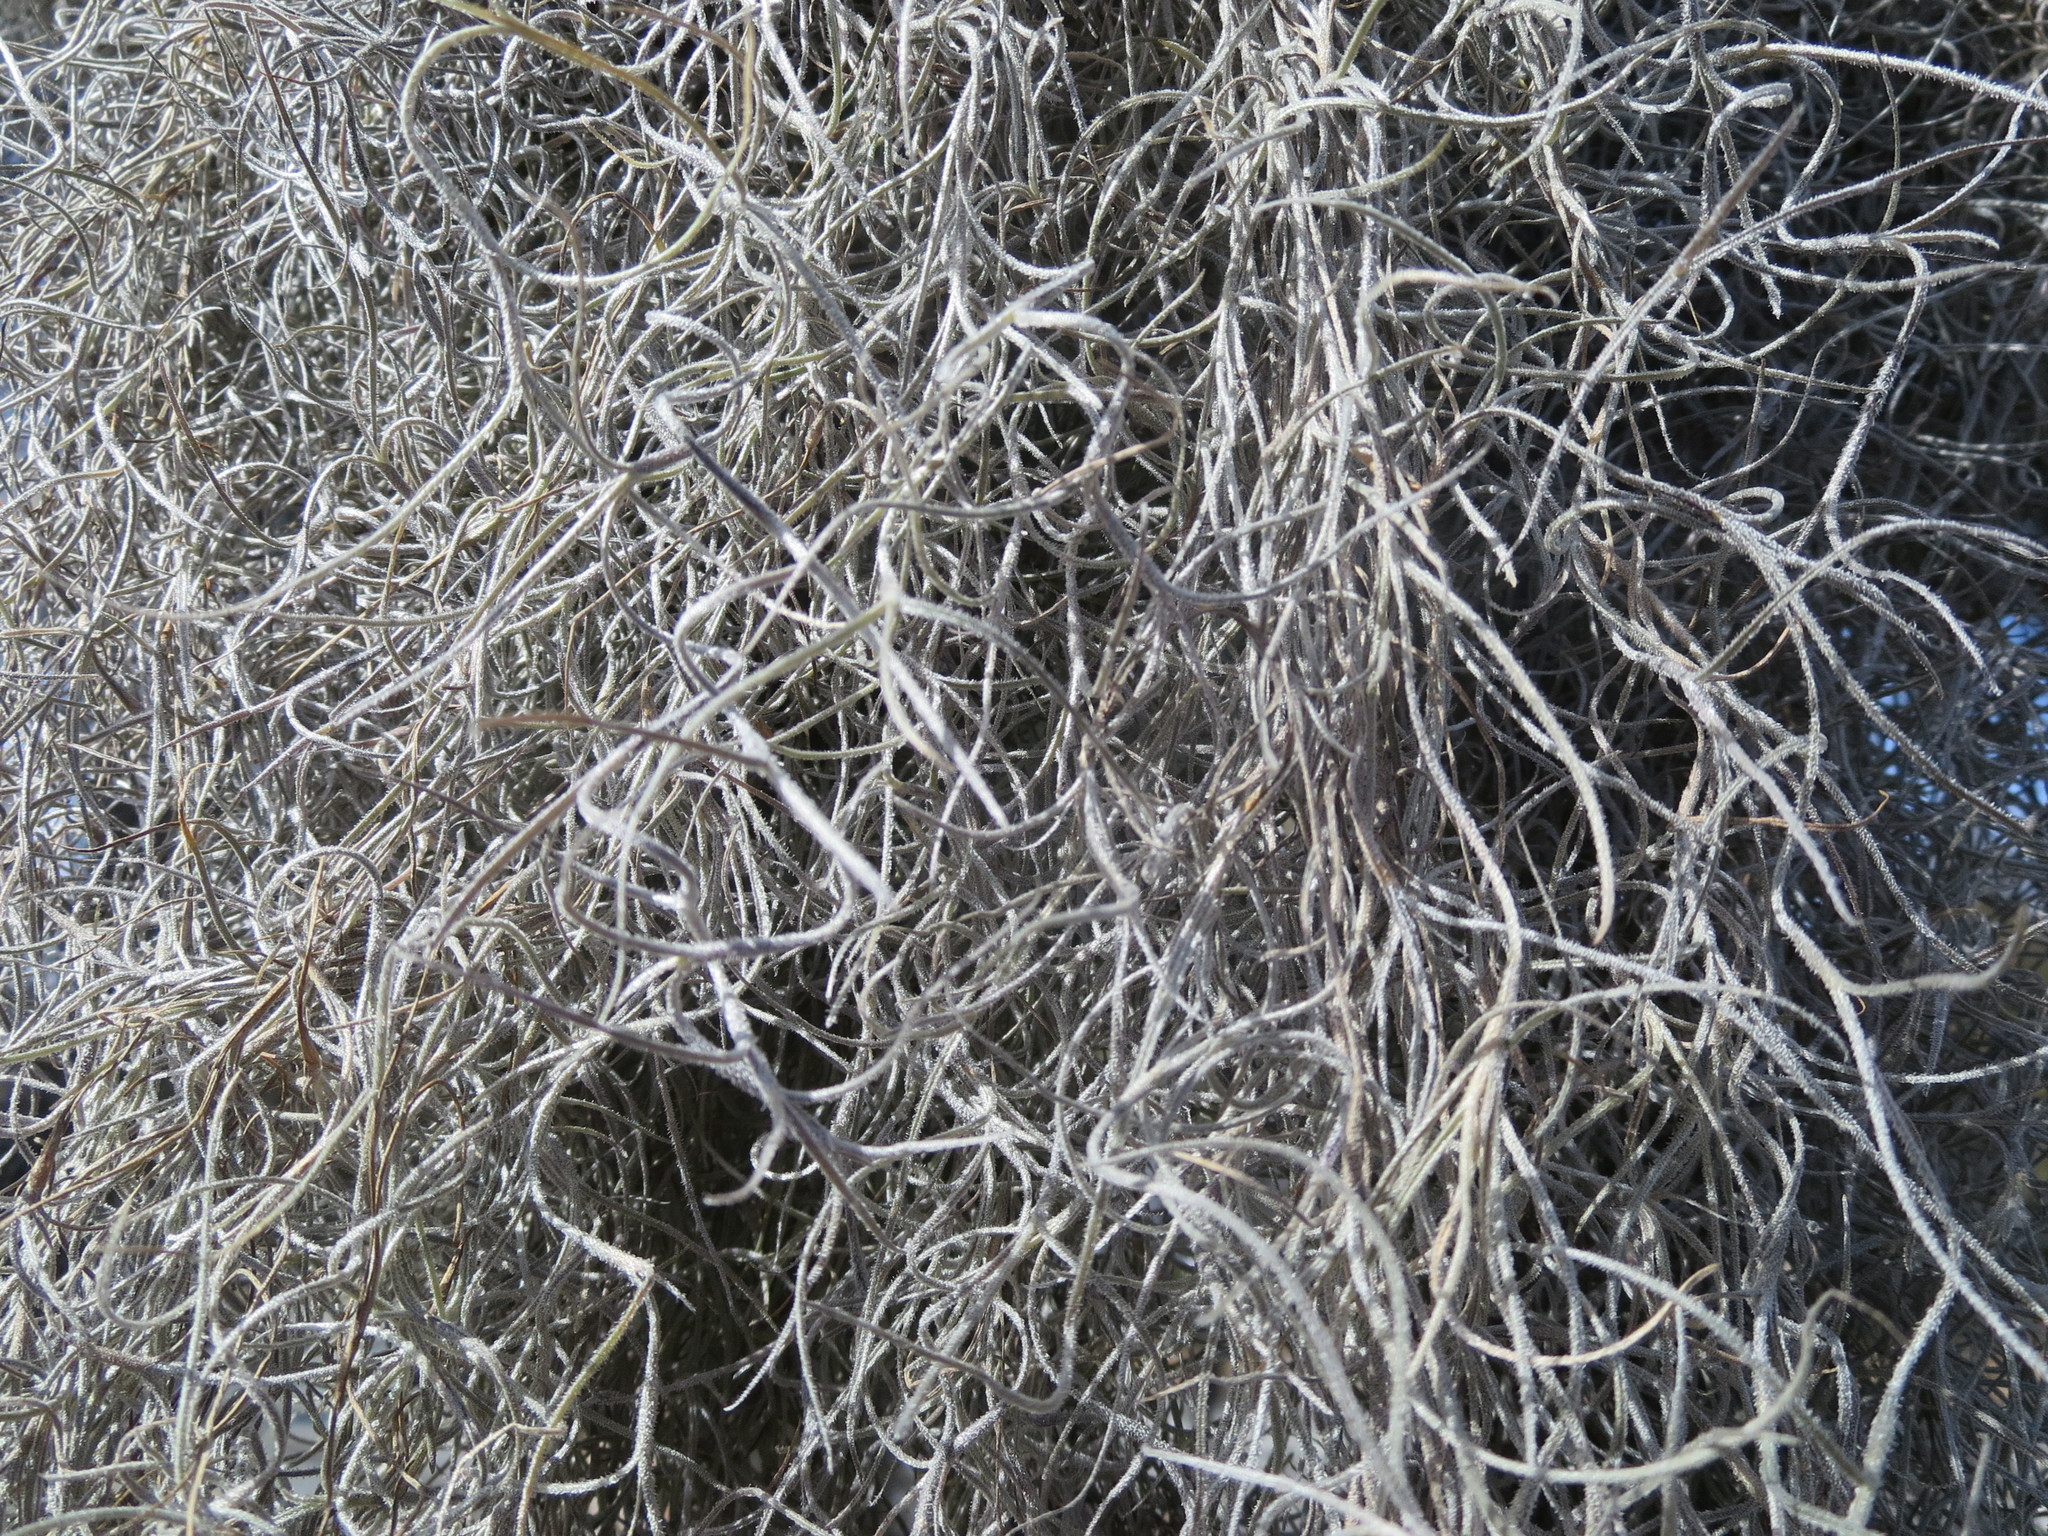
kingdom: Plantae
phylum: Tracheophyta
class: Liliopsida
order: Poales
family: Bromeliaceae
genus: Tillandsia
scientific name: Tillandsia usneoides
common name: Spanish moss
